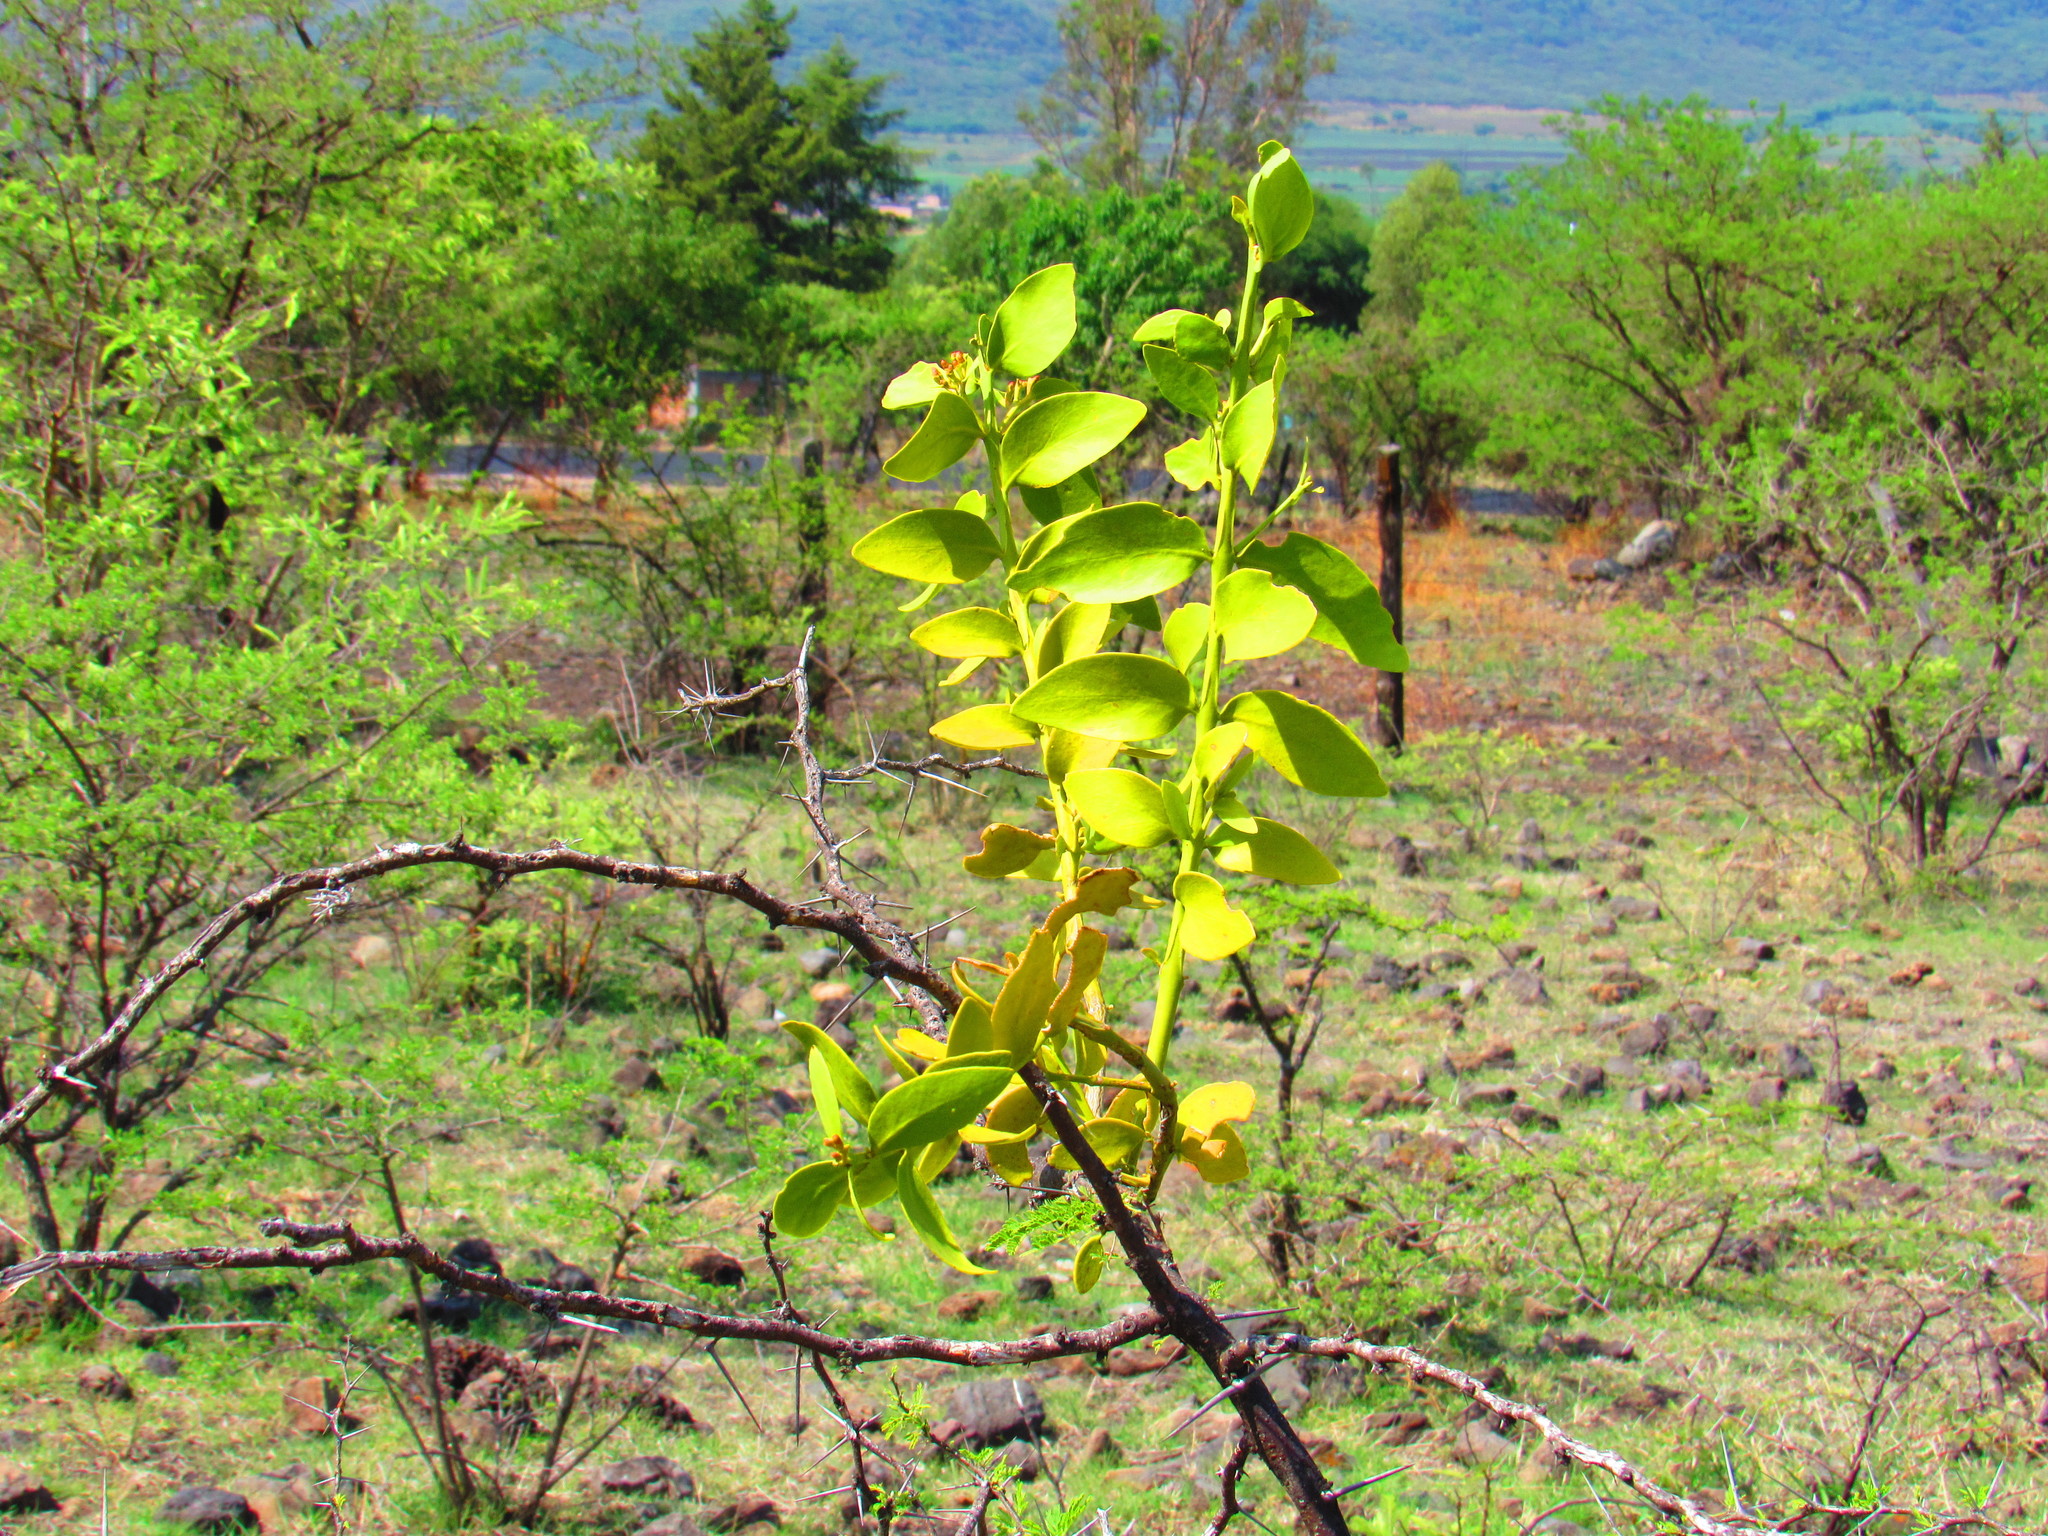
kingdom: Plantae
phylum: Tracheophyta
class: Magnoliopsida
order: Santalales
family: Loranthaceae
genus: Psittacanthus
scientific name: Psittacanthus calyculatus
